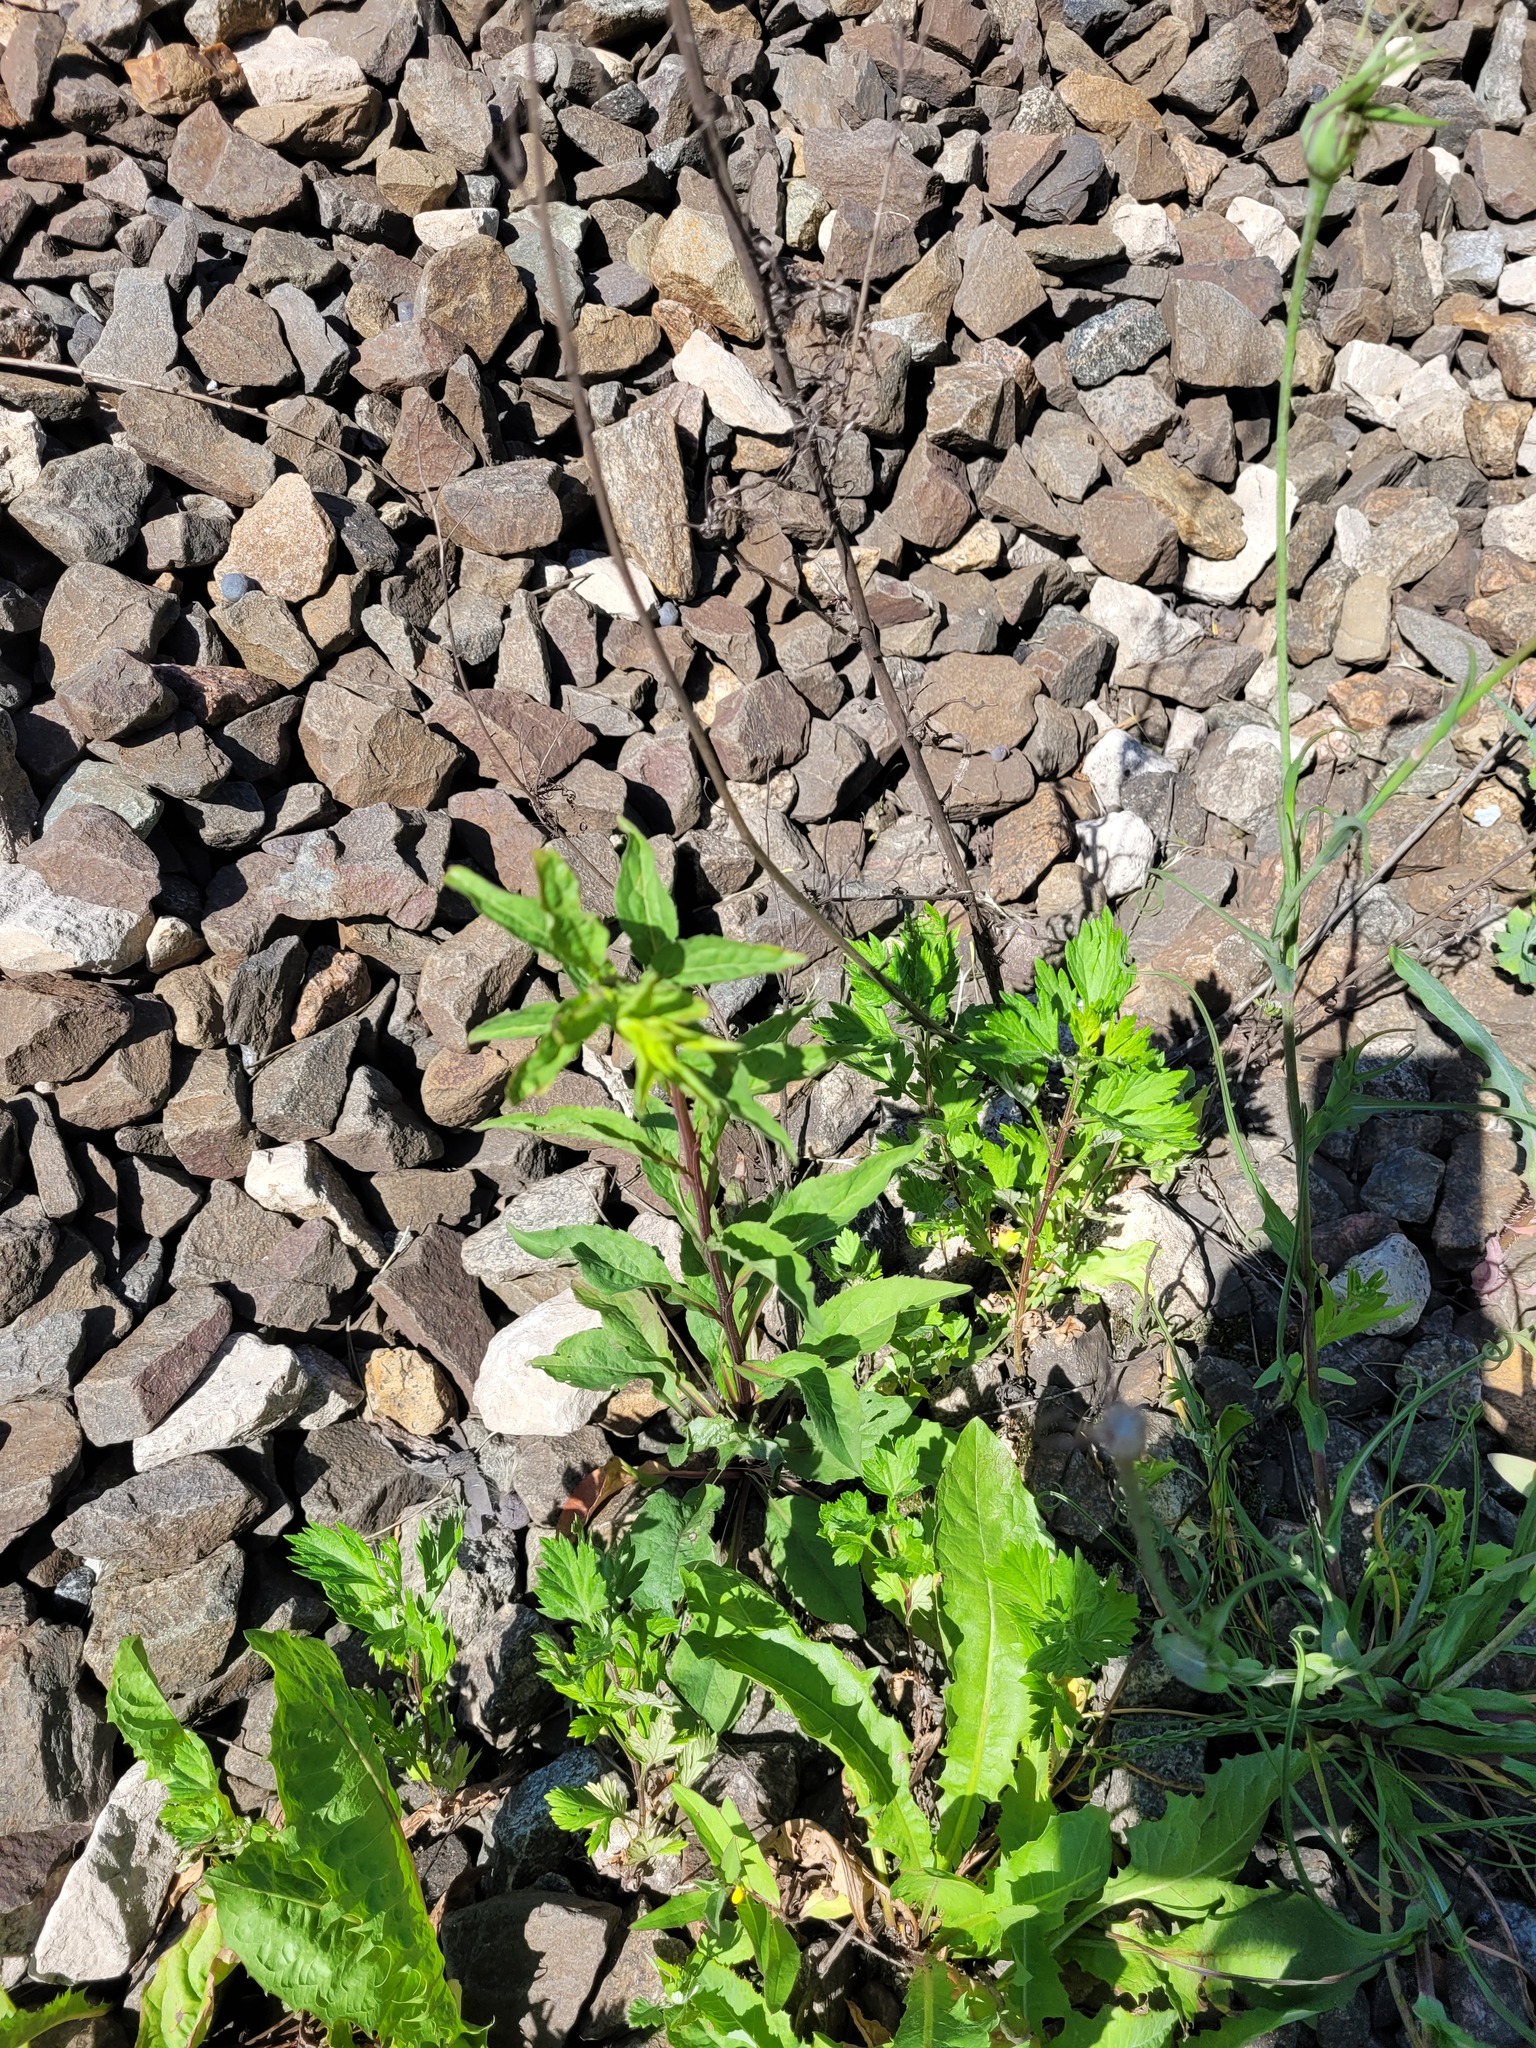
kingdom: Plantae
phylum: Tracheophyta
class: Magnoliopsida
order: Asterales
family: Asteraceae
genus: Solidago
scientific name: Solidago virgaurea
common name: Goldenrod
